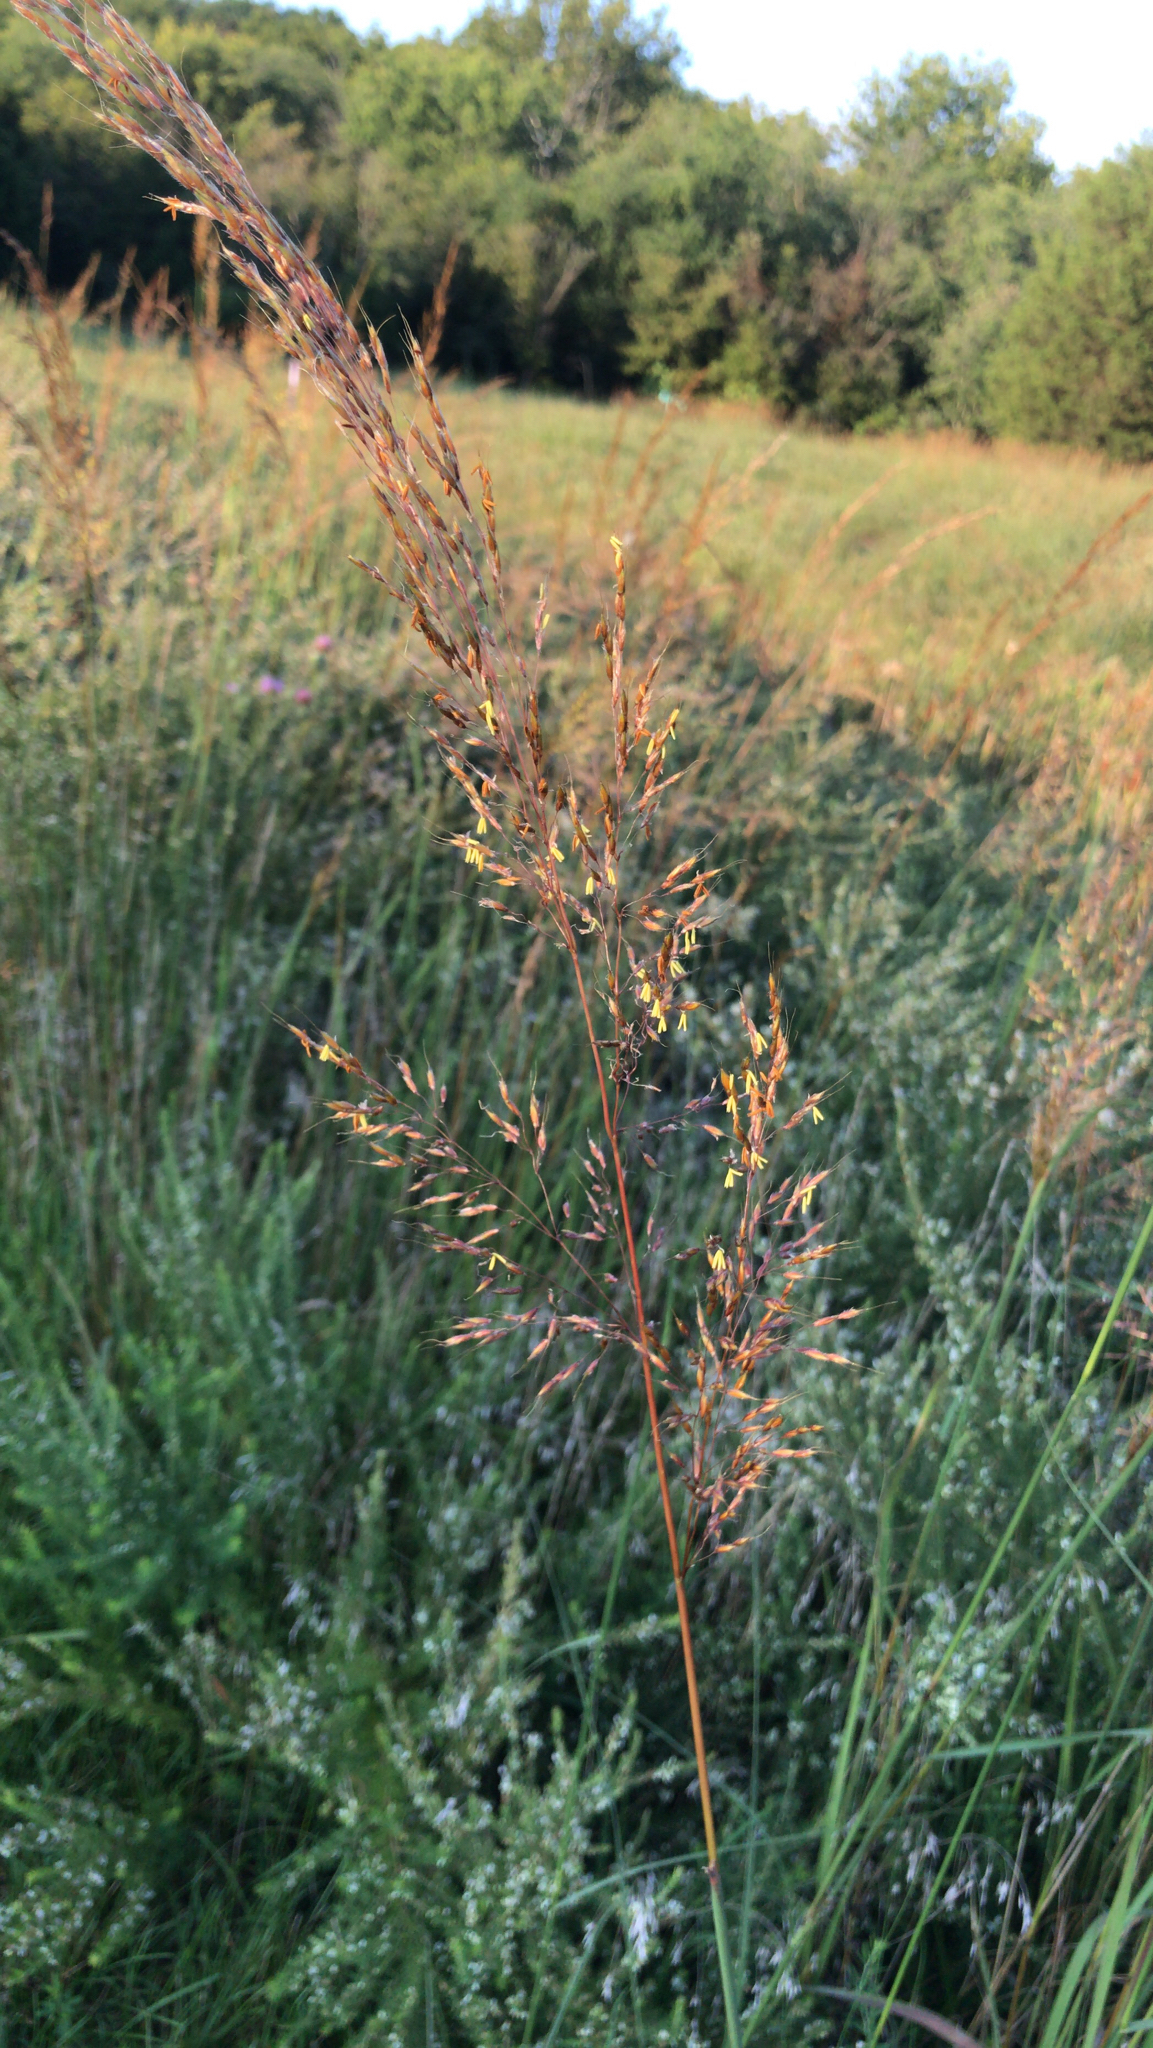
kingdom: Plantae
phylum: Tracheophyta
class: Liliopsida
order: Poales
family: Poaceae
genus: Sorghastrum
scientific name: Sorghastrum nutans
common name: Indian grass
